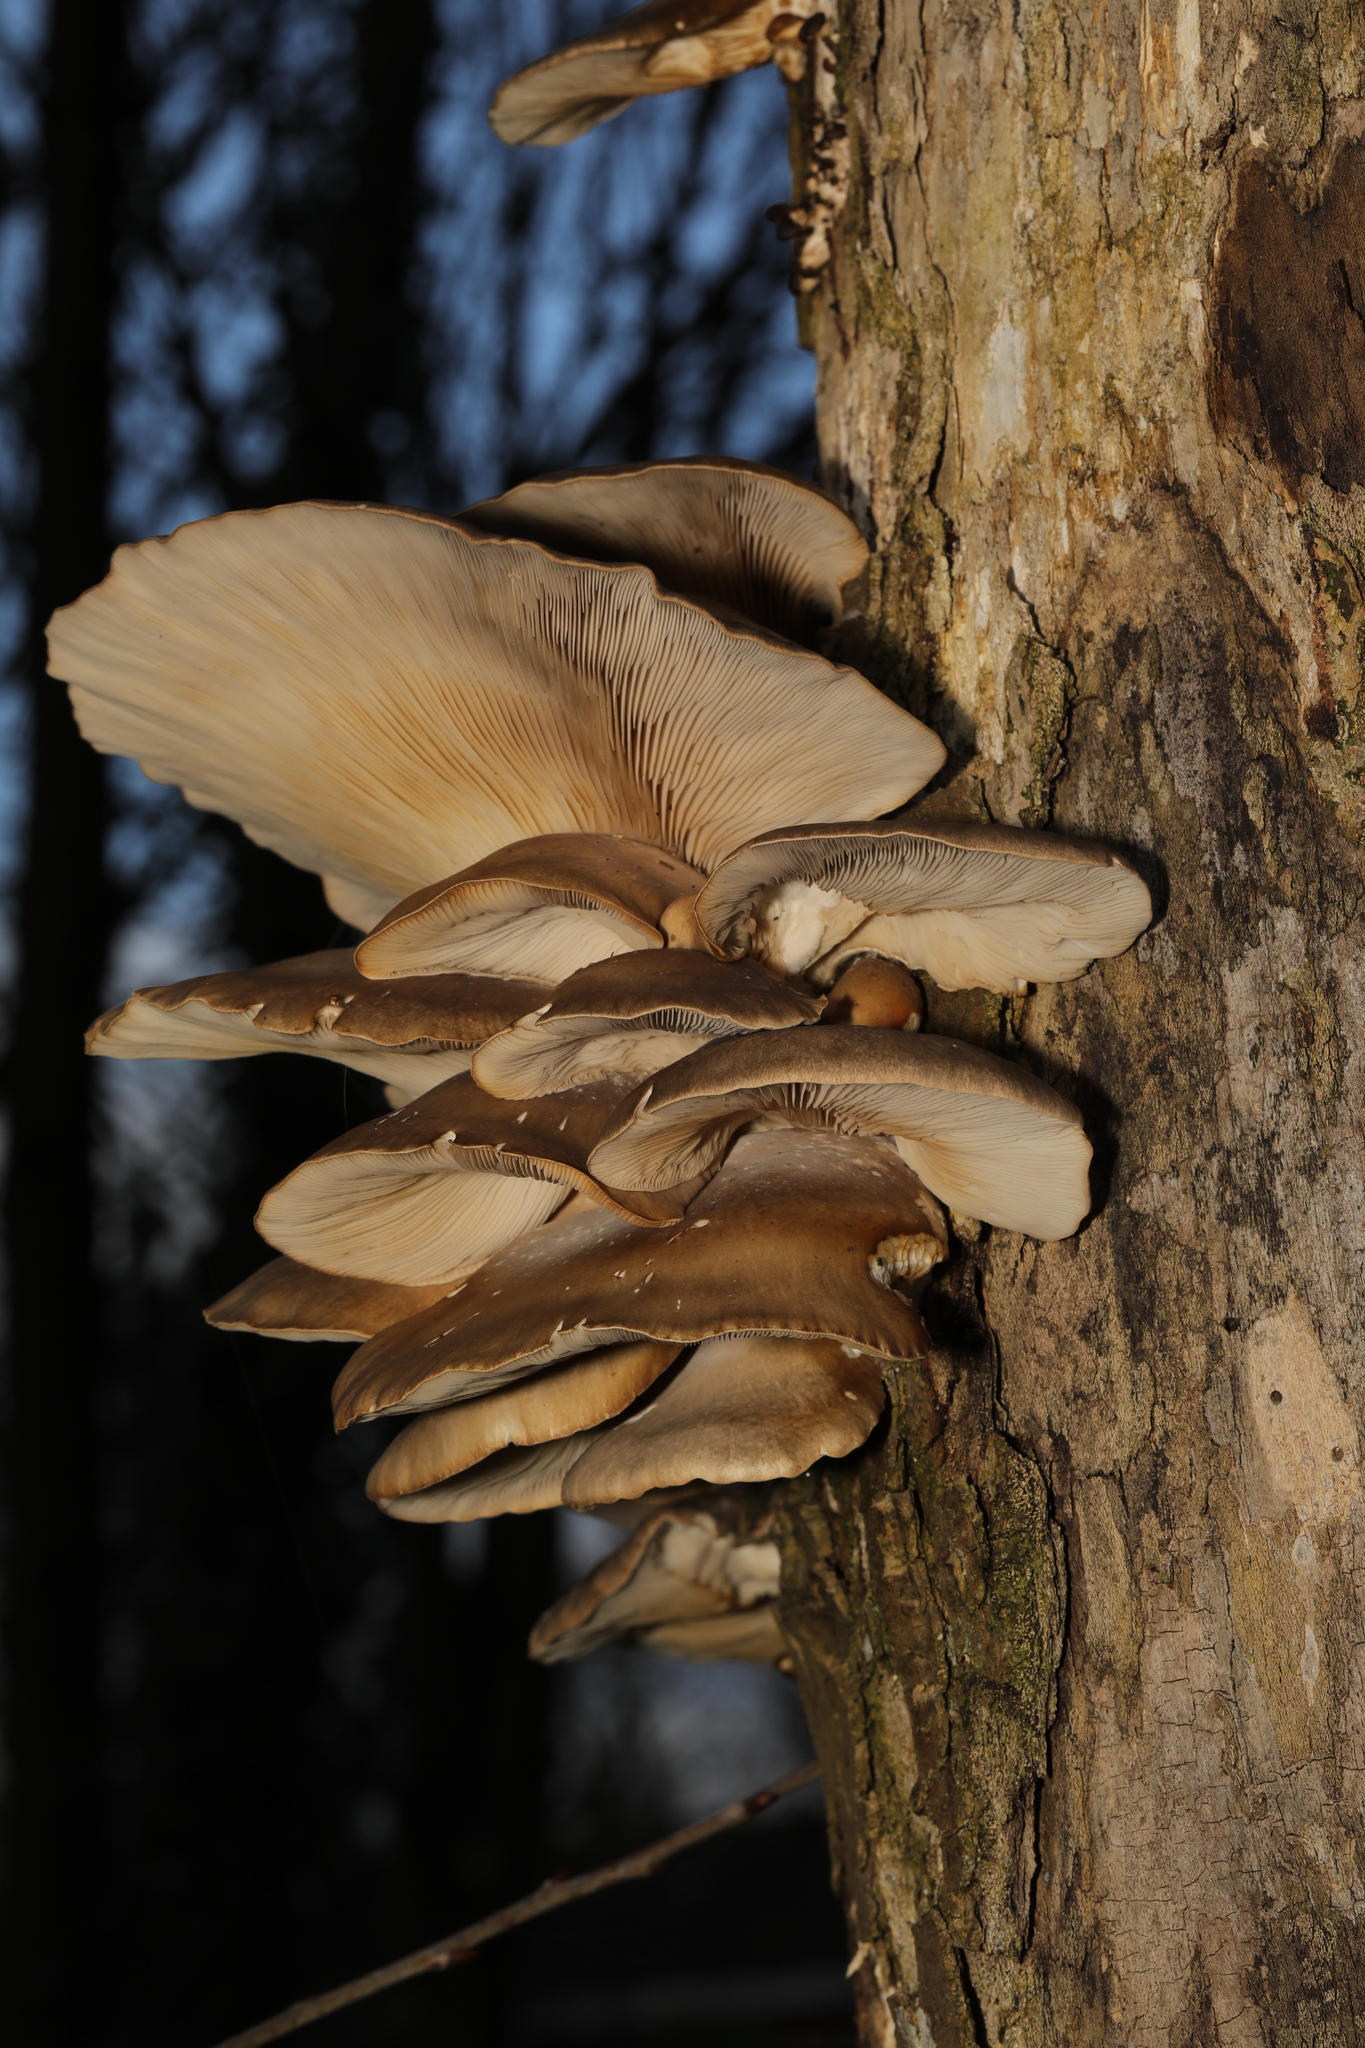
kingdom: Fungi
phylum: Basidiomycota
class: Agaricomycetes
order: Agaricales
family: Pleurotaceae
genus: Pleurotus
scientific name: Pleurotus ostreatus
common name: Oyster mushroom
